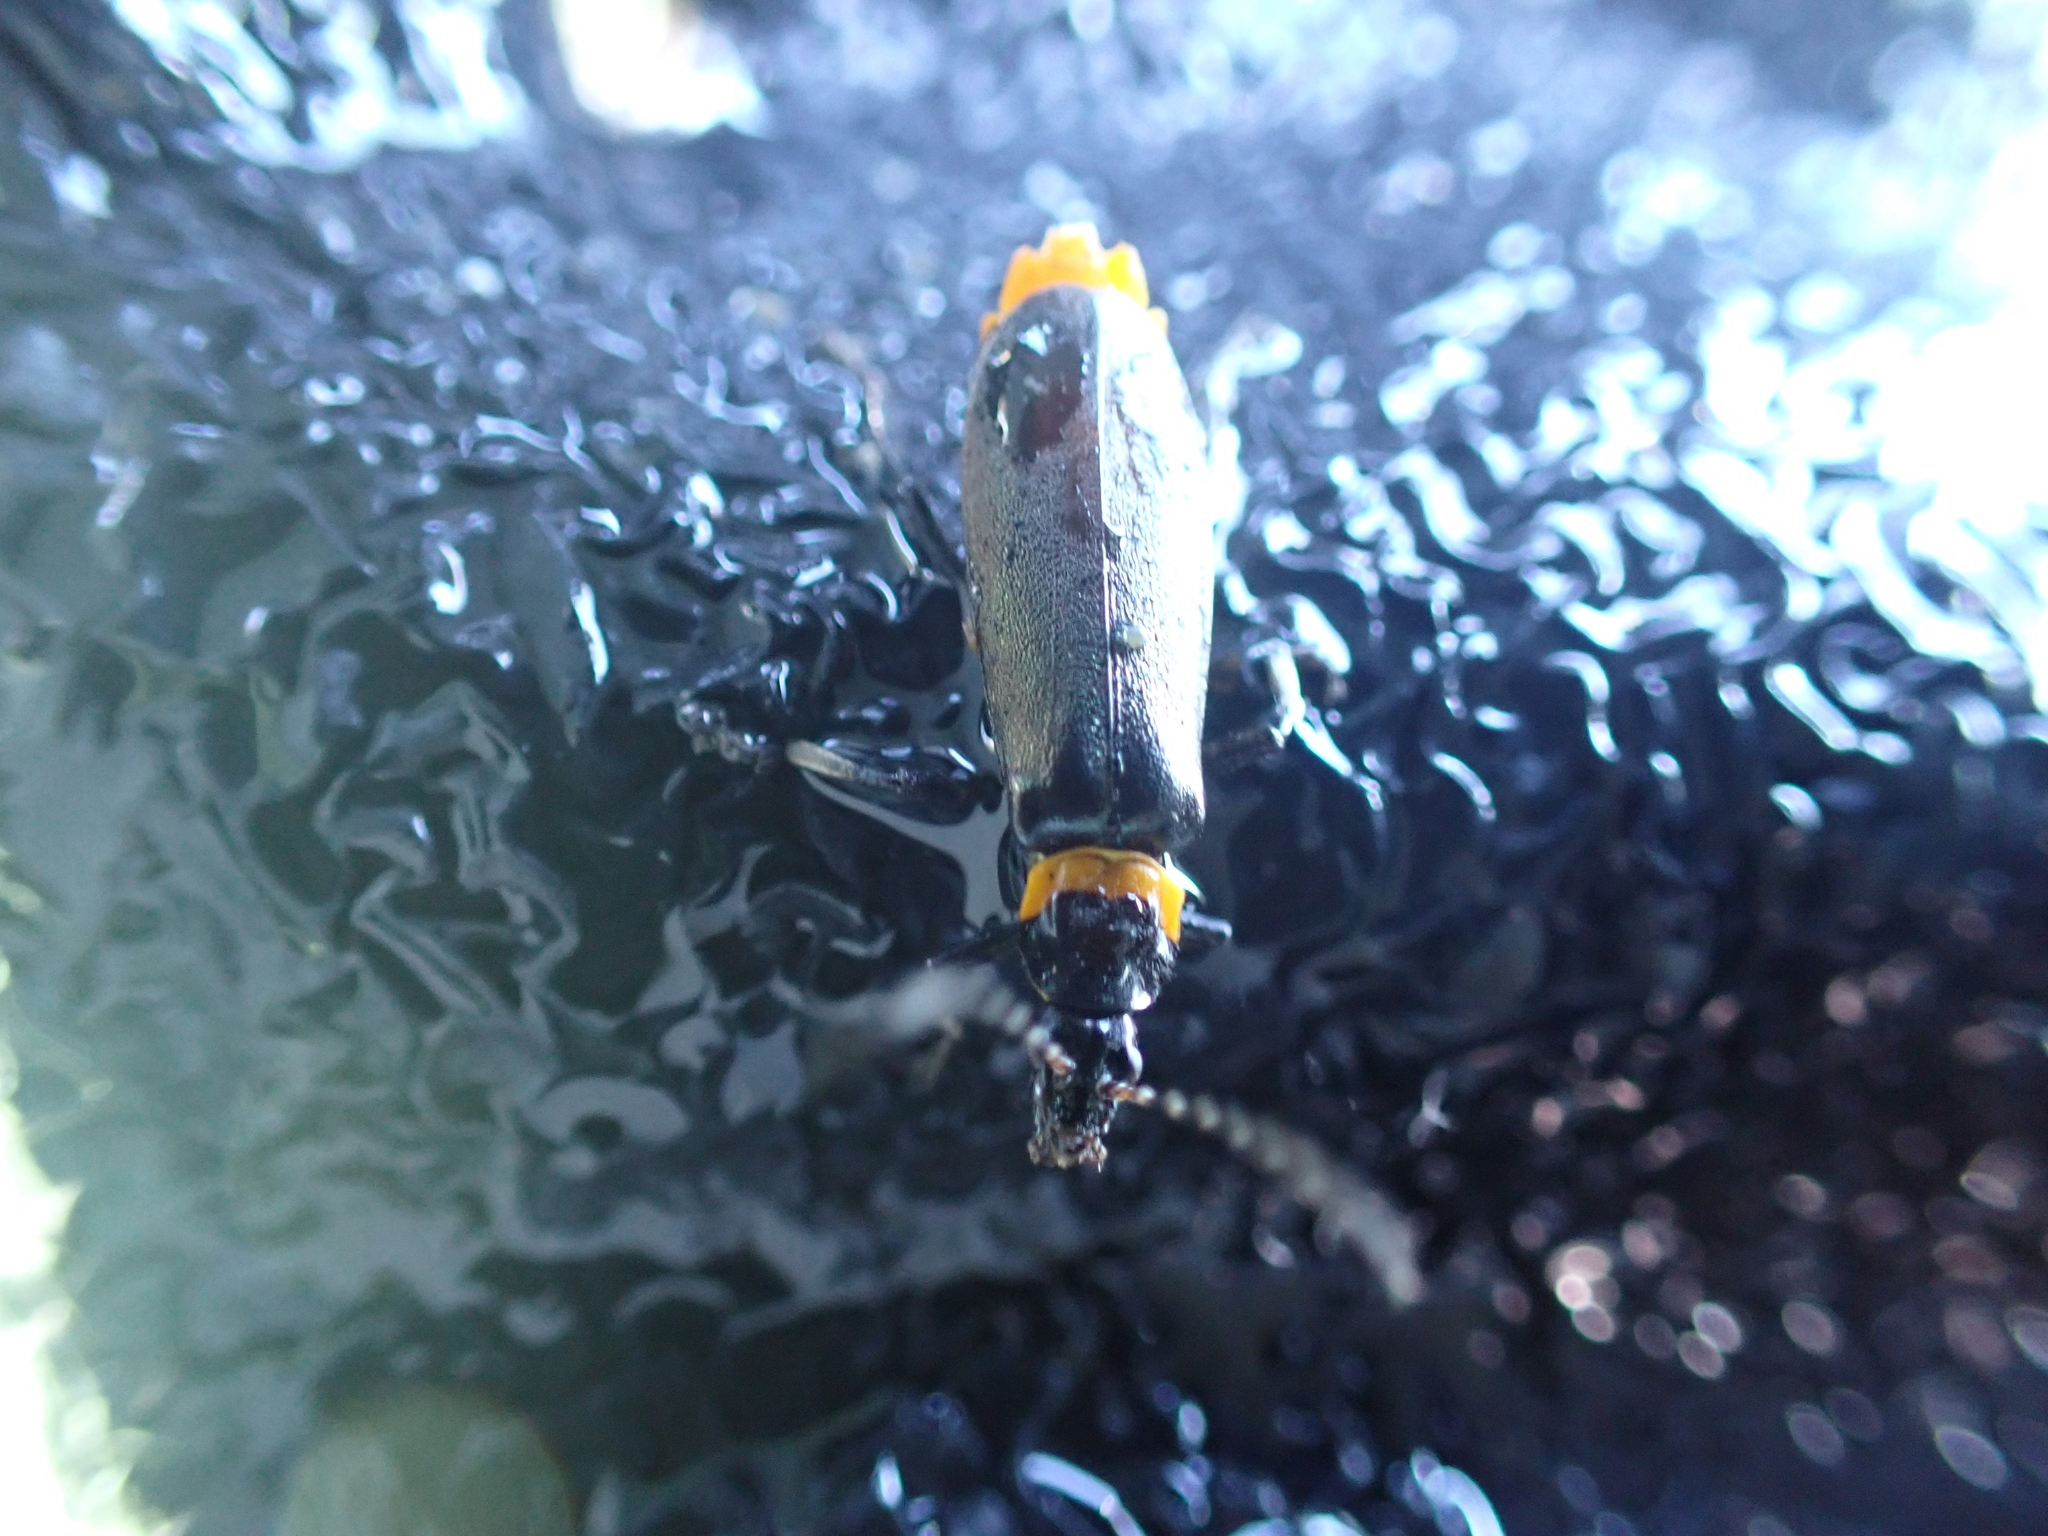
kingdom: Animalia
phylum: Arthropoda
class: Insecta
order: Coleoptera
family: Cantharidae
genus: Chauliognathus
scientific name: Chauliognathus
